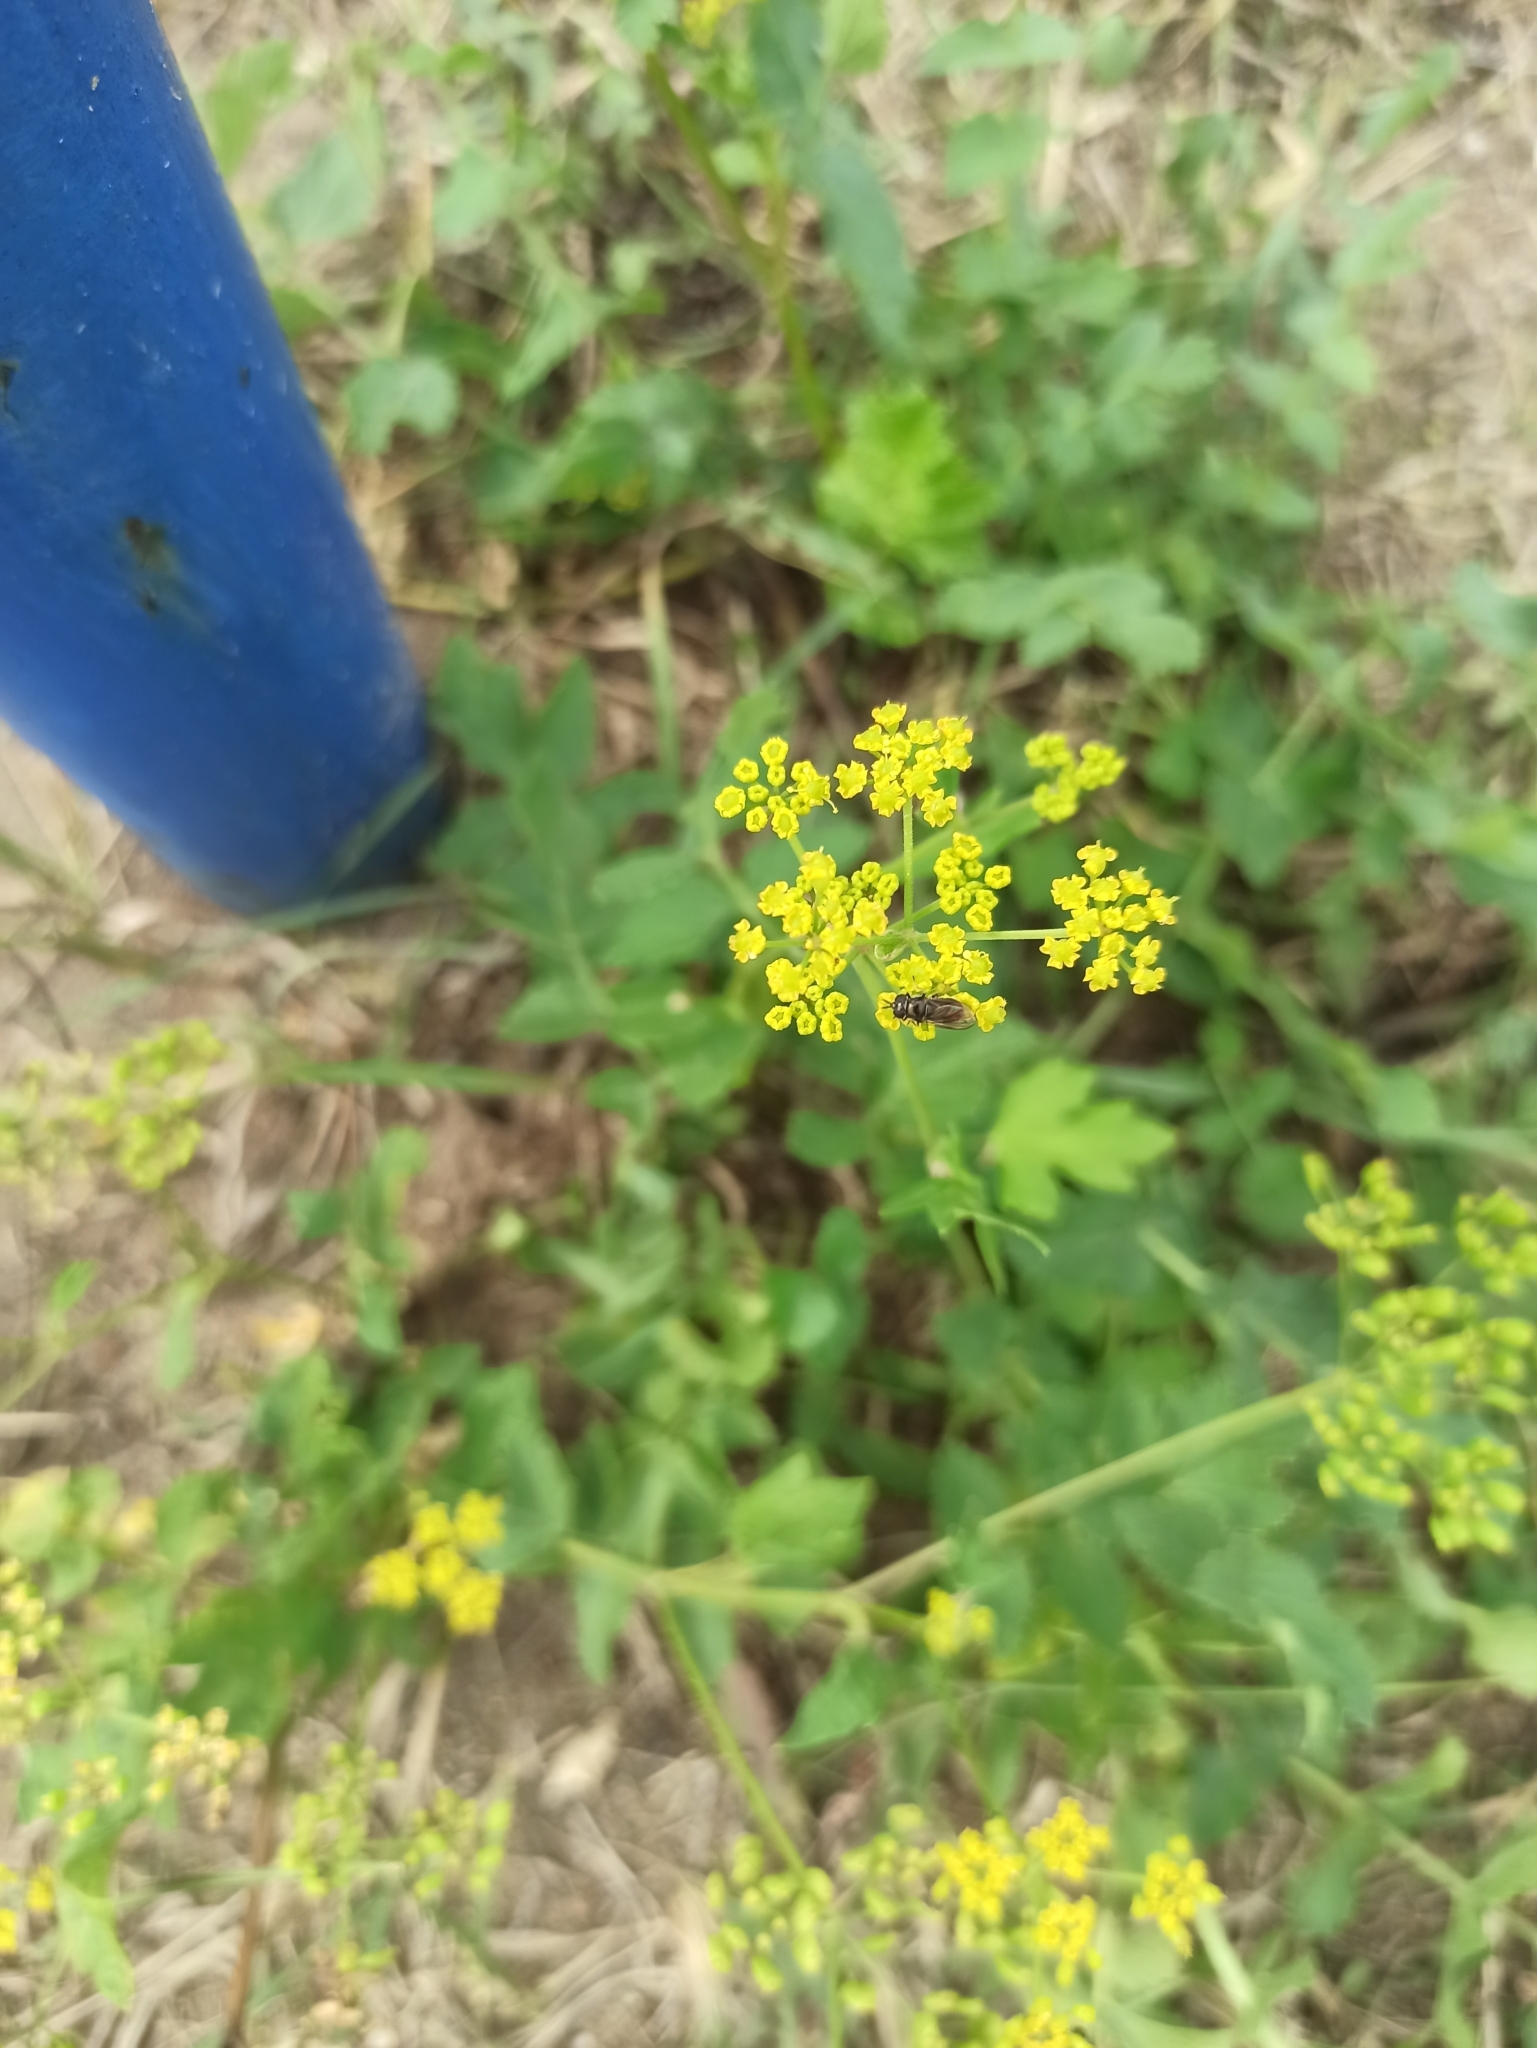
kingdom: Plantae
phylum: Tracheophyta
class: Magnoliopsida
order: Apiales
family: Apiaceae
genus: Pastinaca
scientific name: Pastinaca sativa
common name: Wild parsnip
